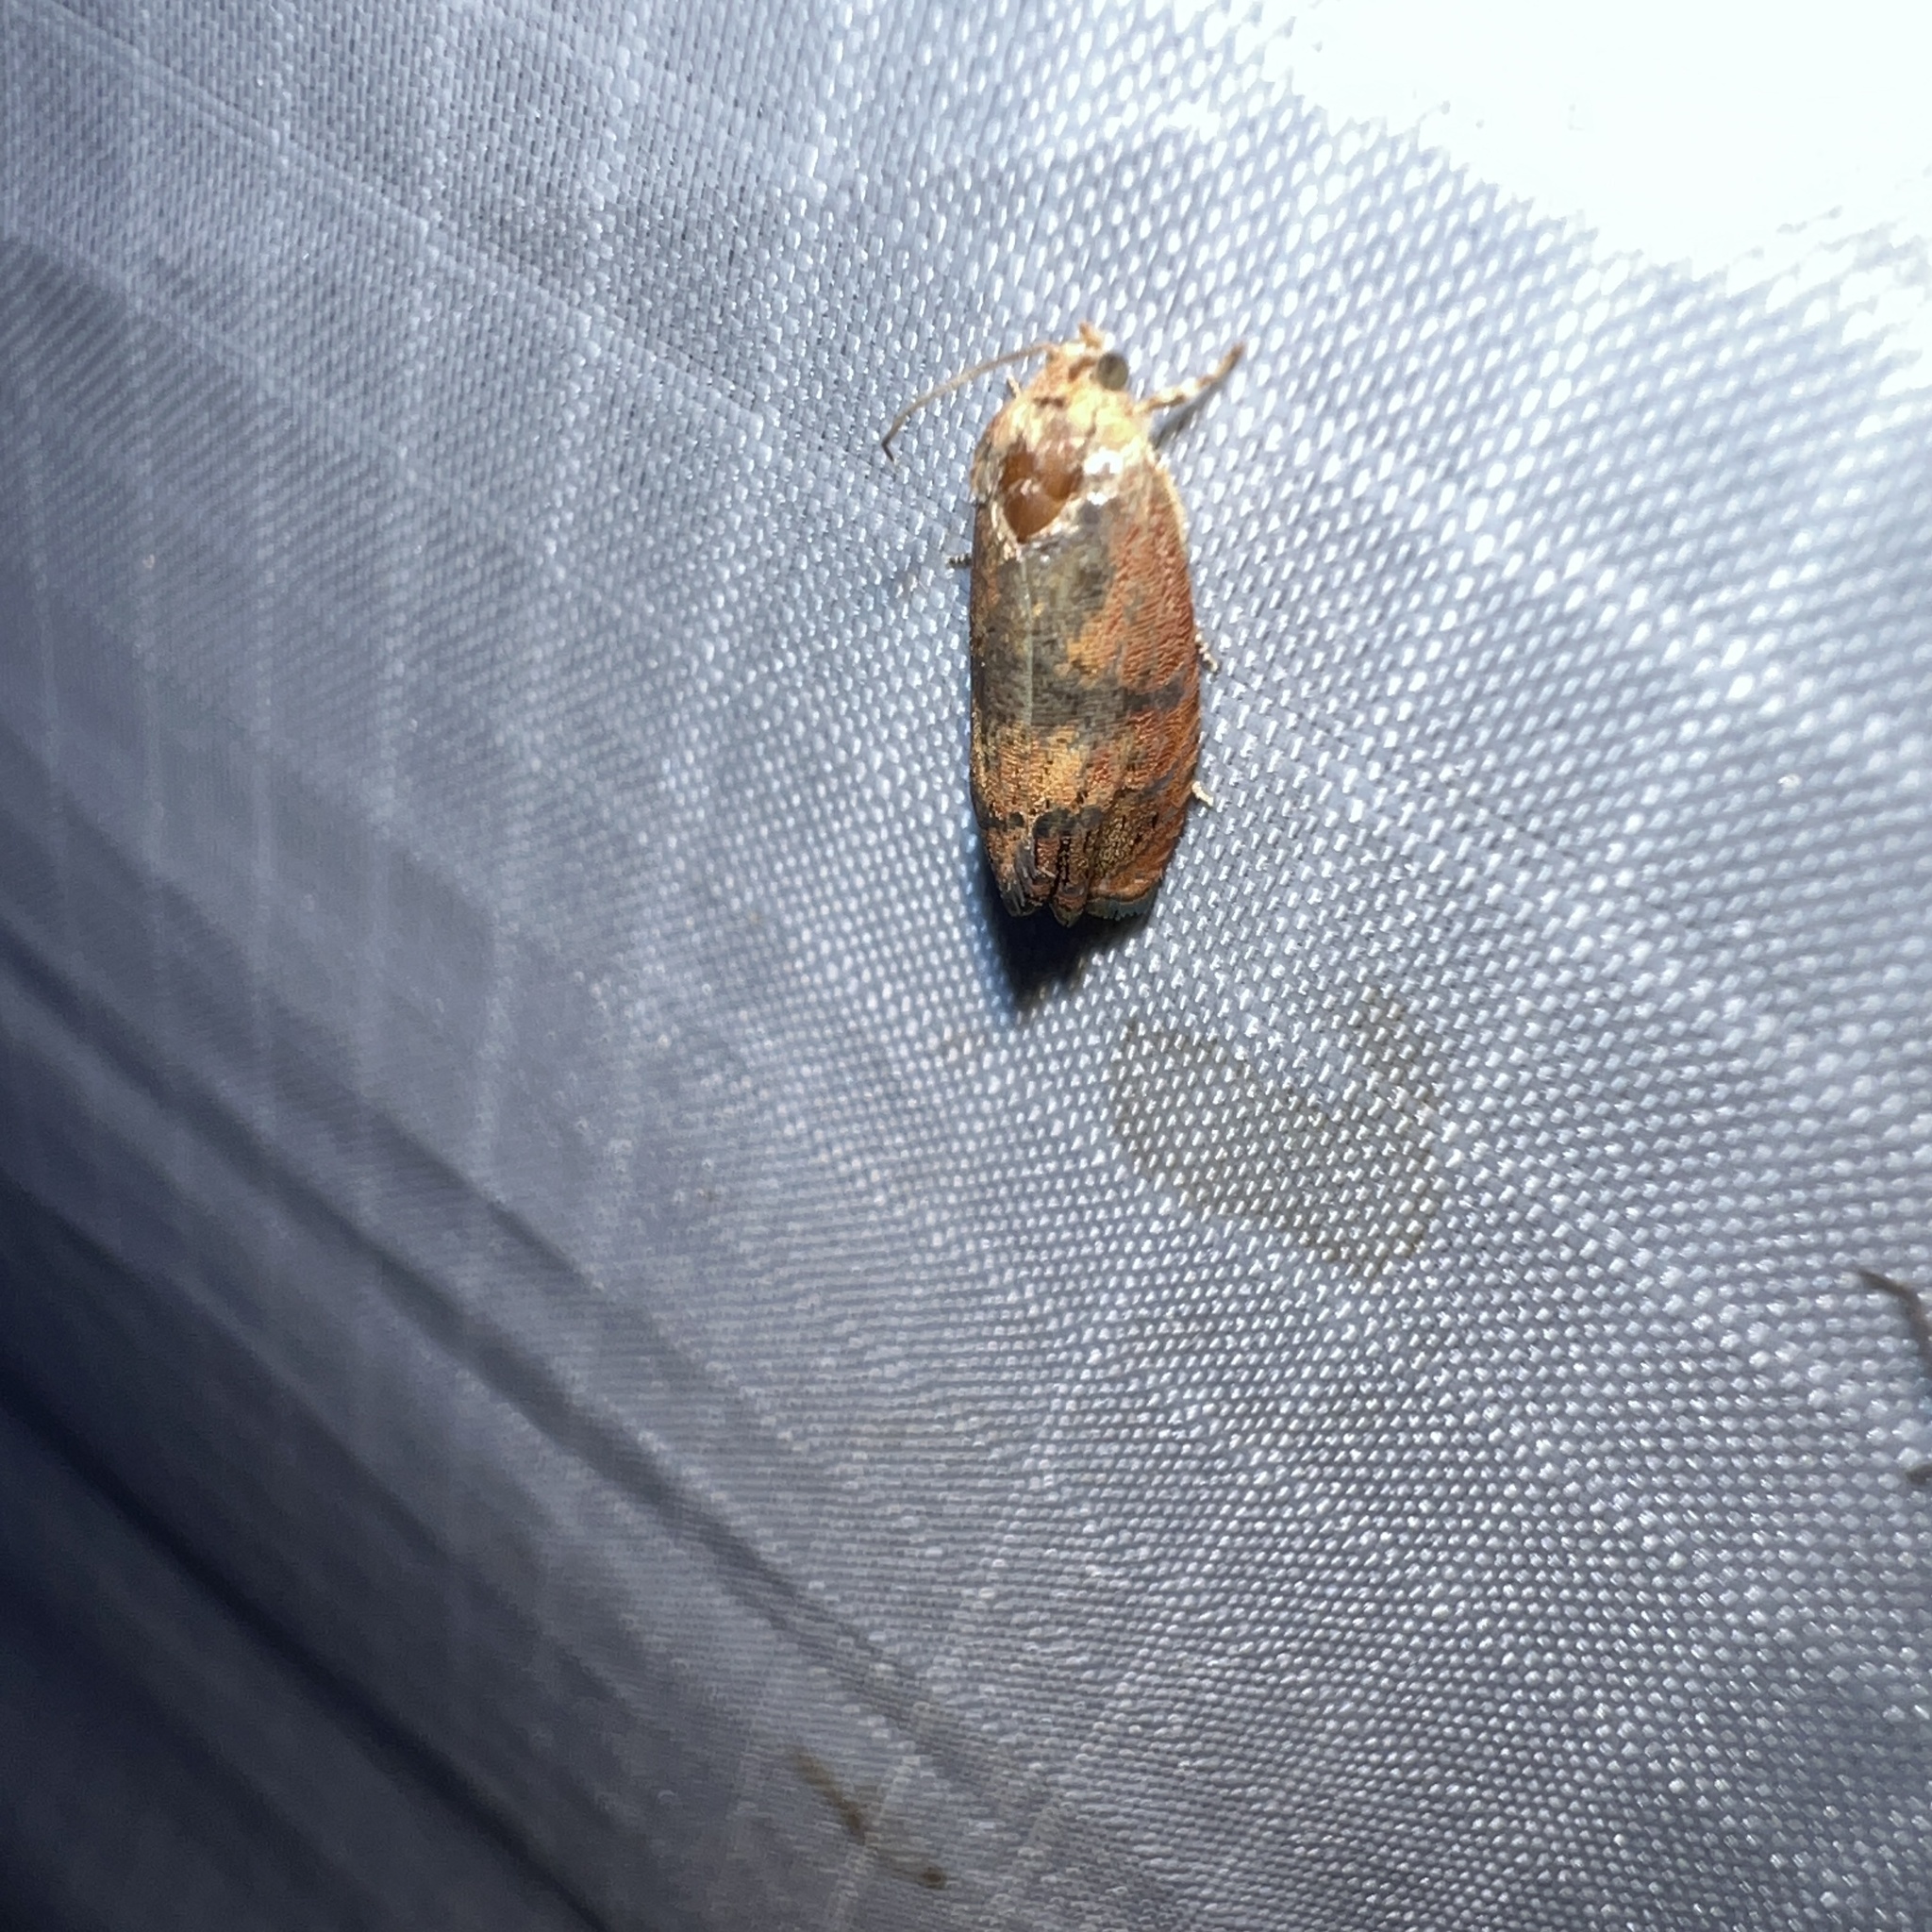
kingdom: Animalia
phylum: Arthropoda
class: Insecta
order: Lepidoptera
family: Tortricidae
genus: Cydia
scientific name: Cydia latiferreana
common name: Filbertworm moth
